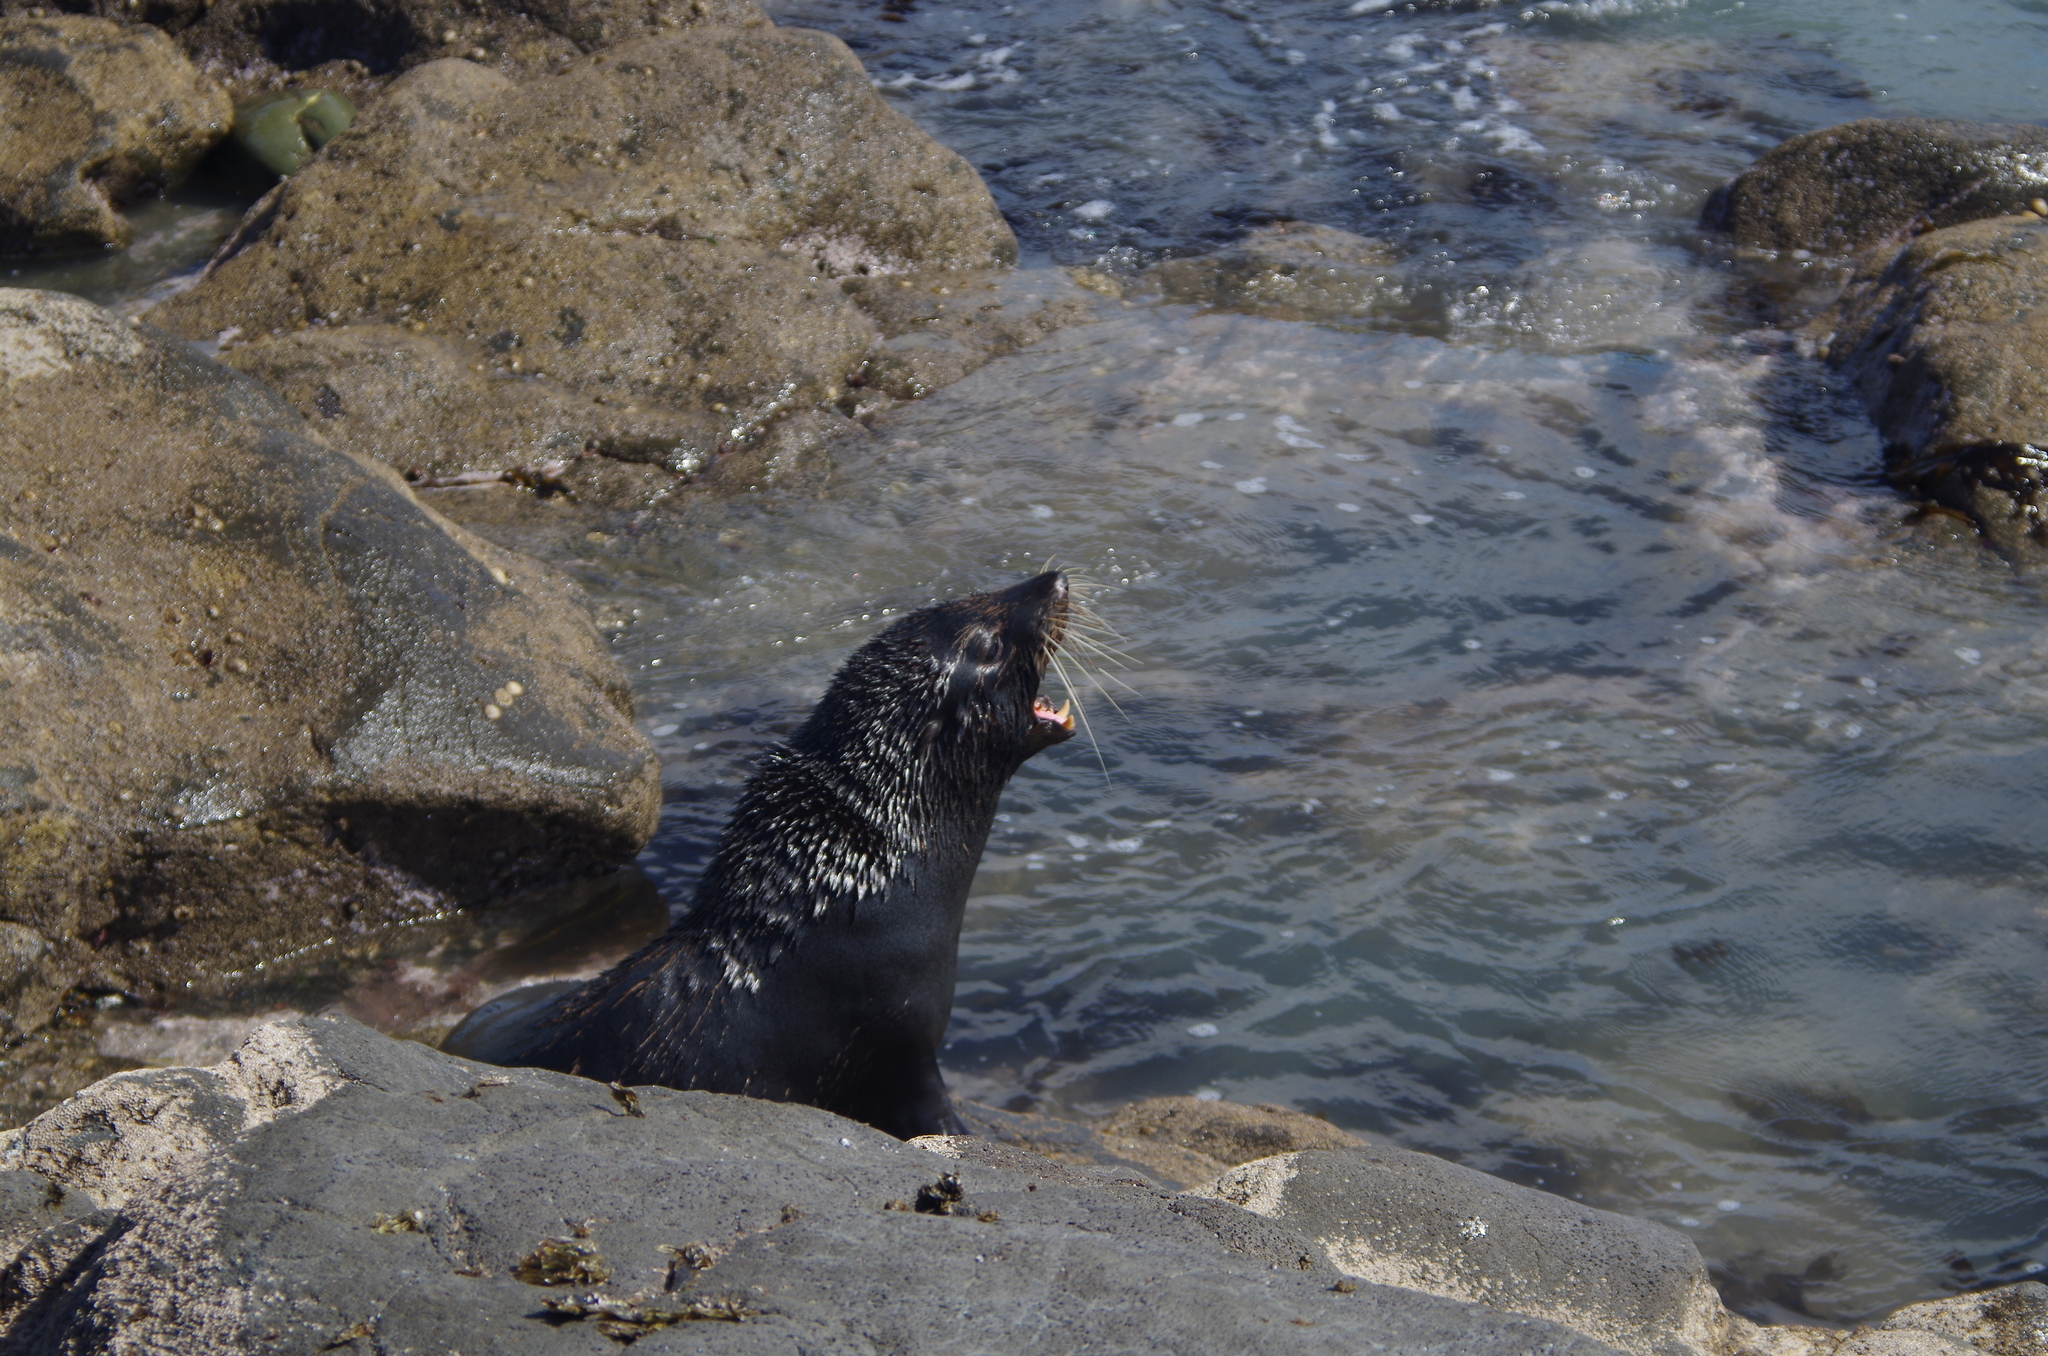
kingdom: Animalia
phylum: Chordata
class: Mammalia
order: Carnivora
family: Otariidae
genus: Arctocephalus
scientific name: Arctocephalus forsteri
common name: New zealand fur seal
